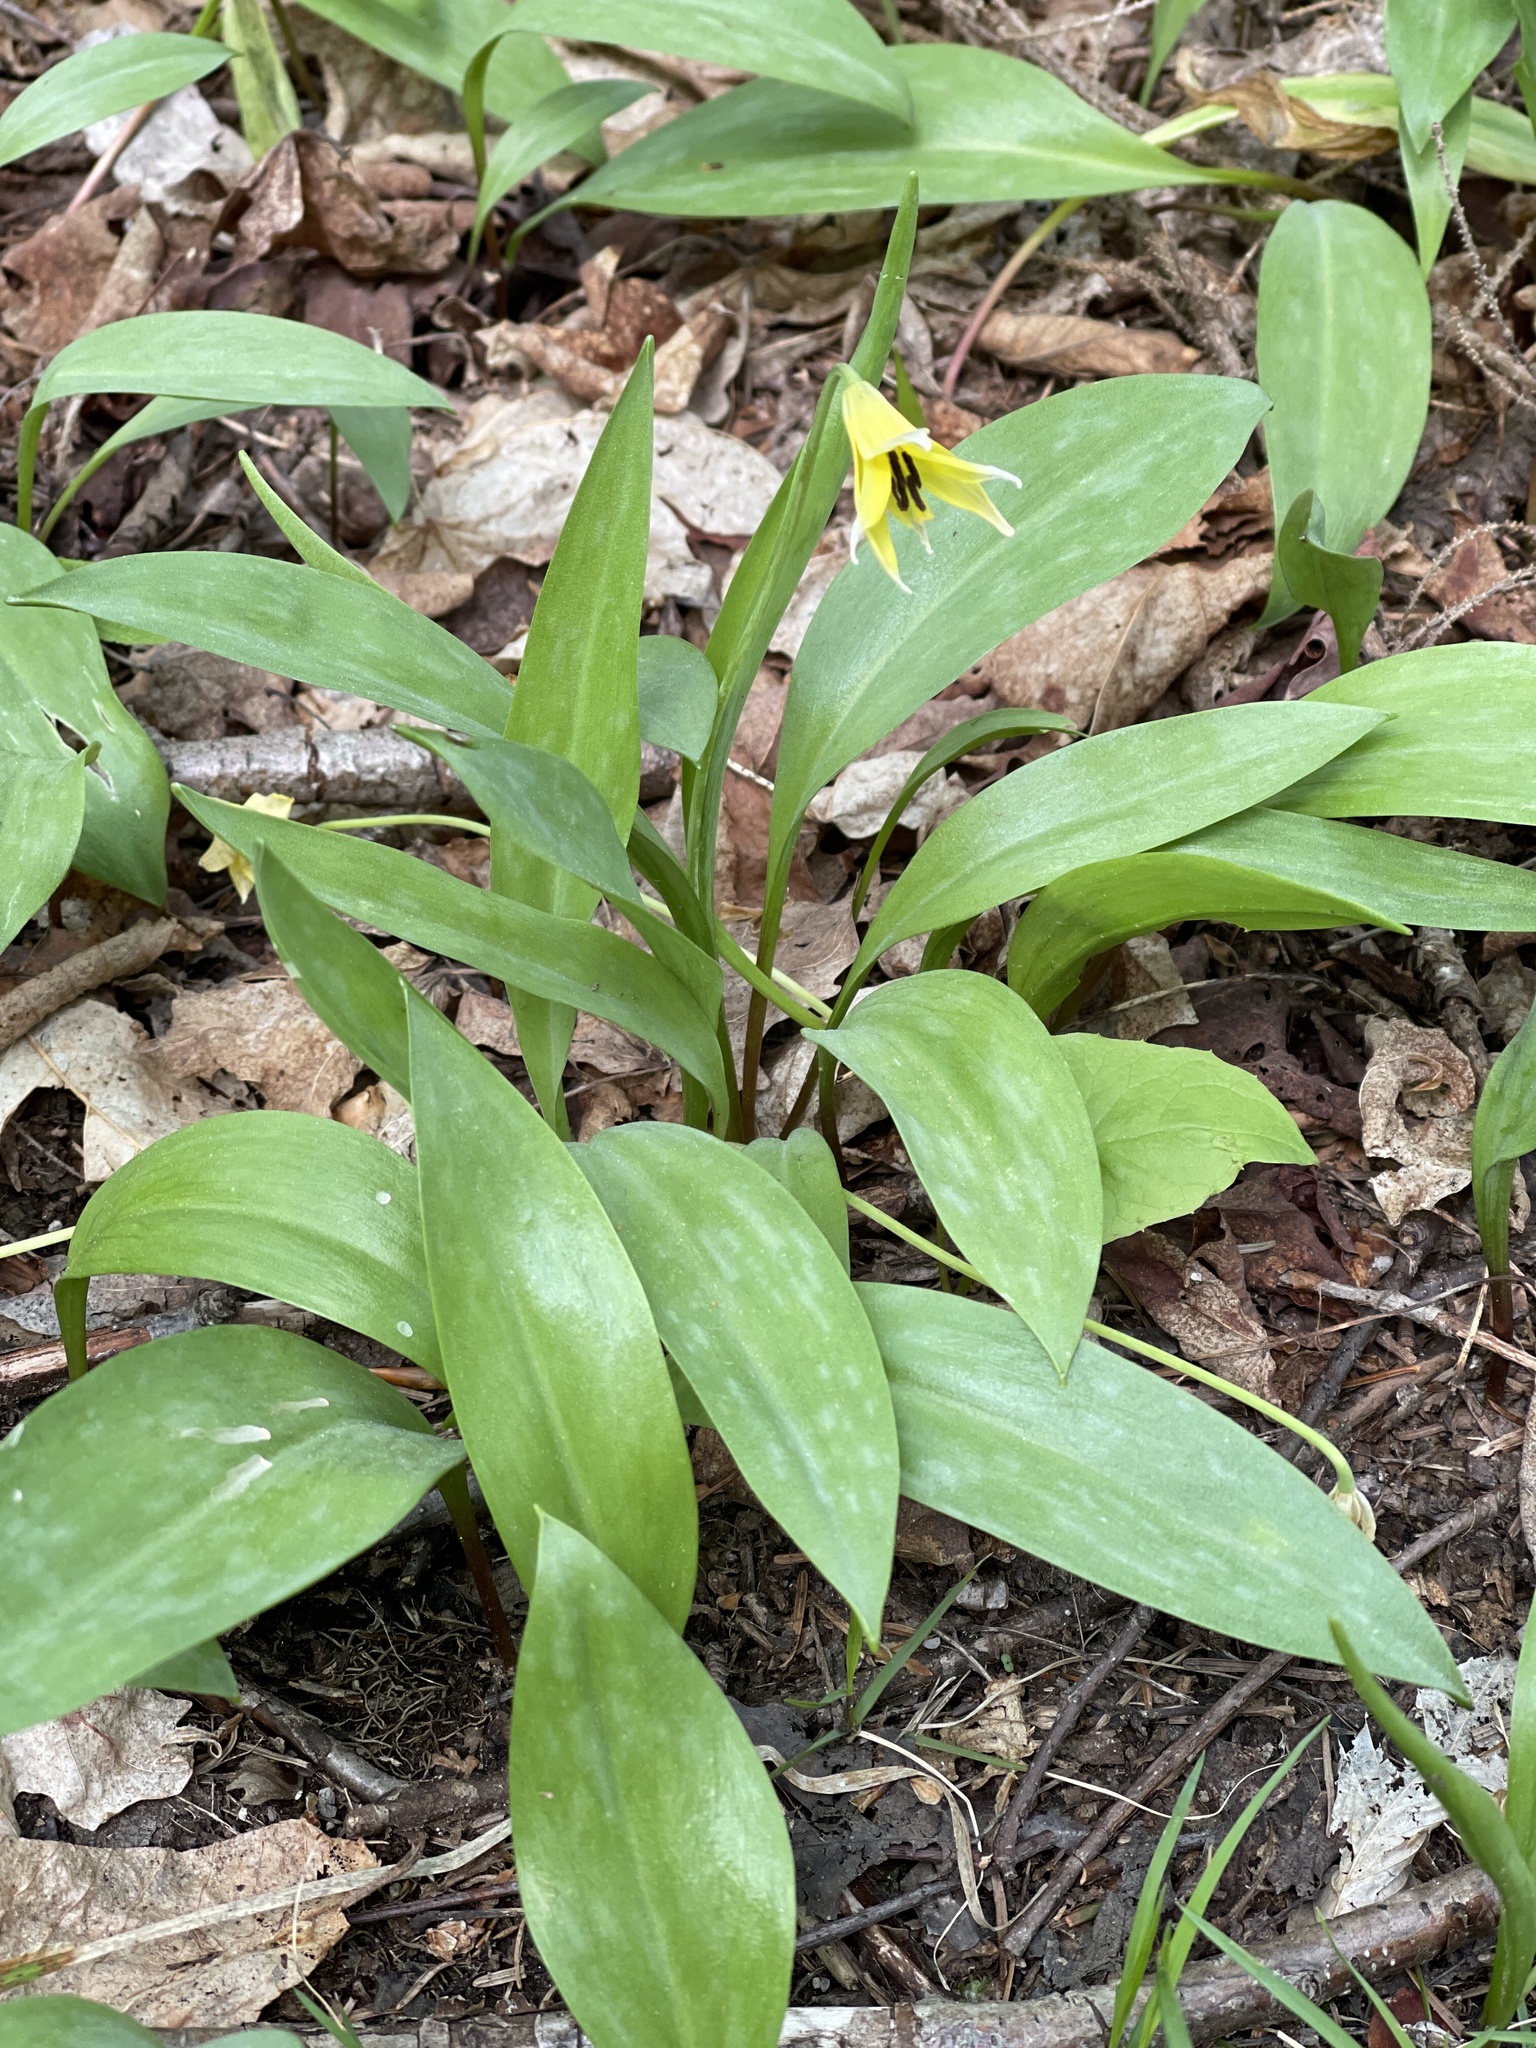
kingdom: Plantae
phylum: Tracheophyta
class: Liliopsida
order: Liliales
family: Liliaceae
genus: Erythronium
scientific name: Erythronium americanum
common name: Yellow adder's-tongue
